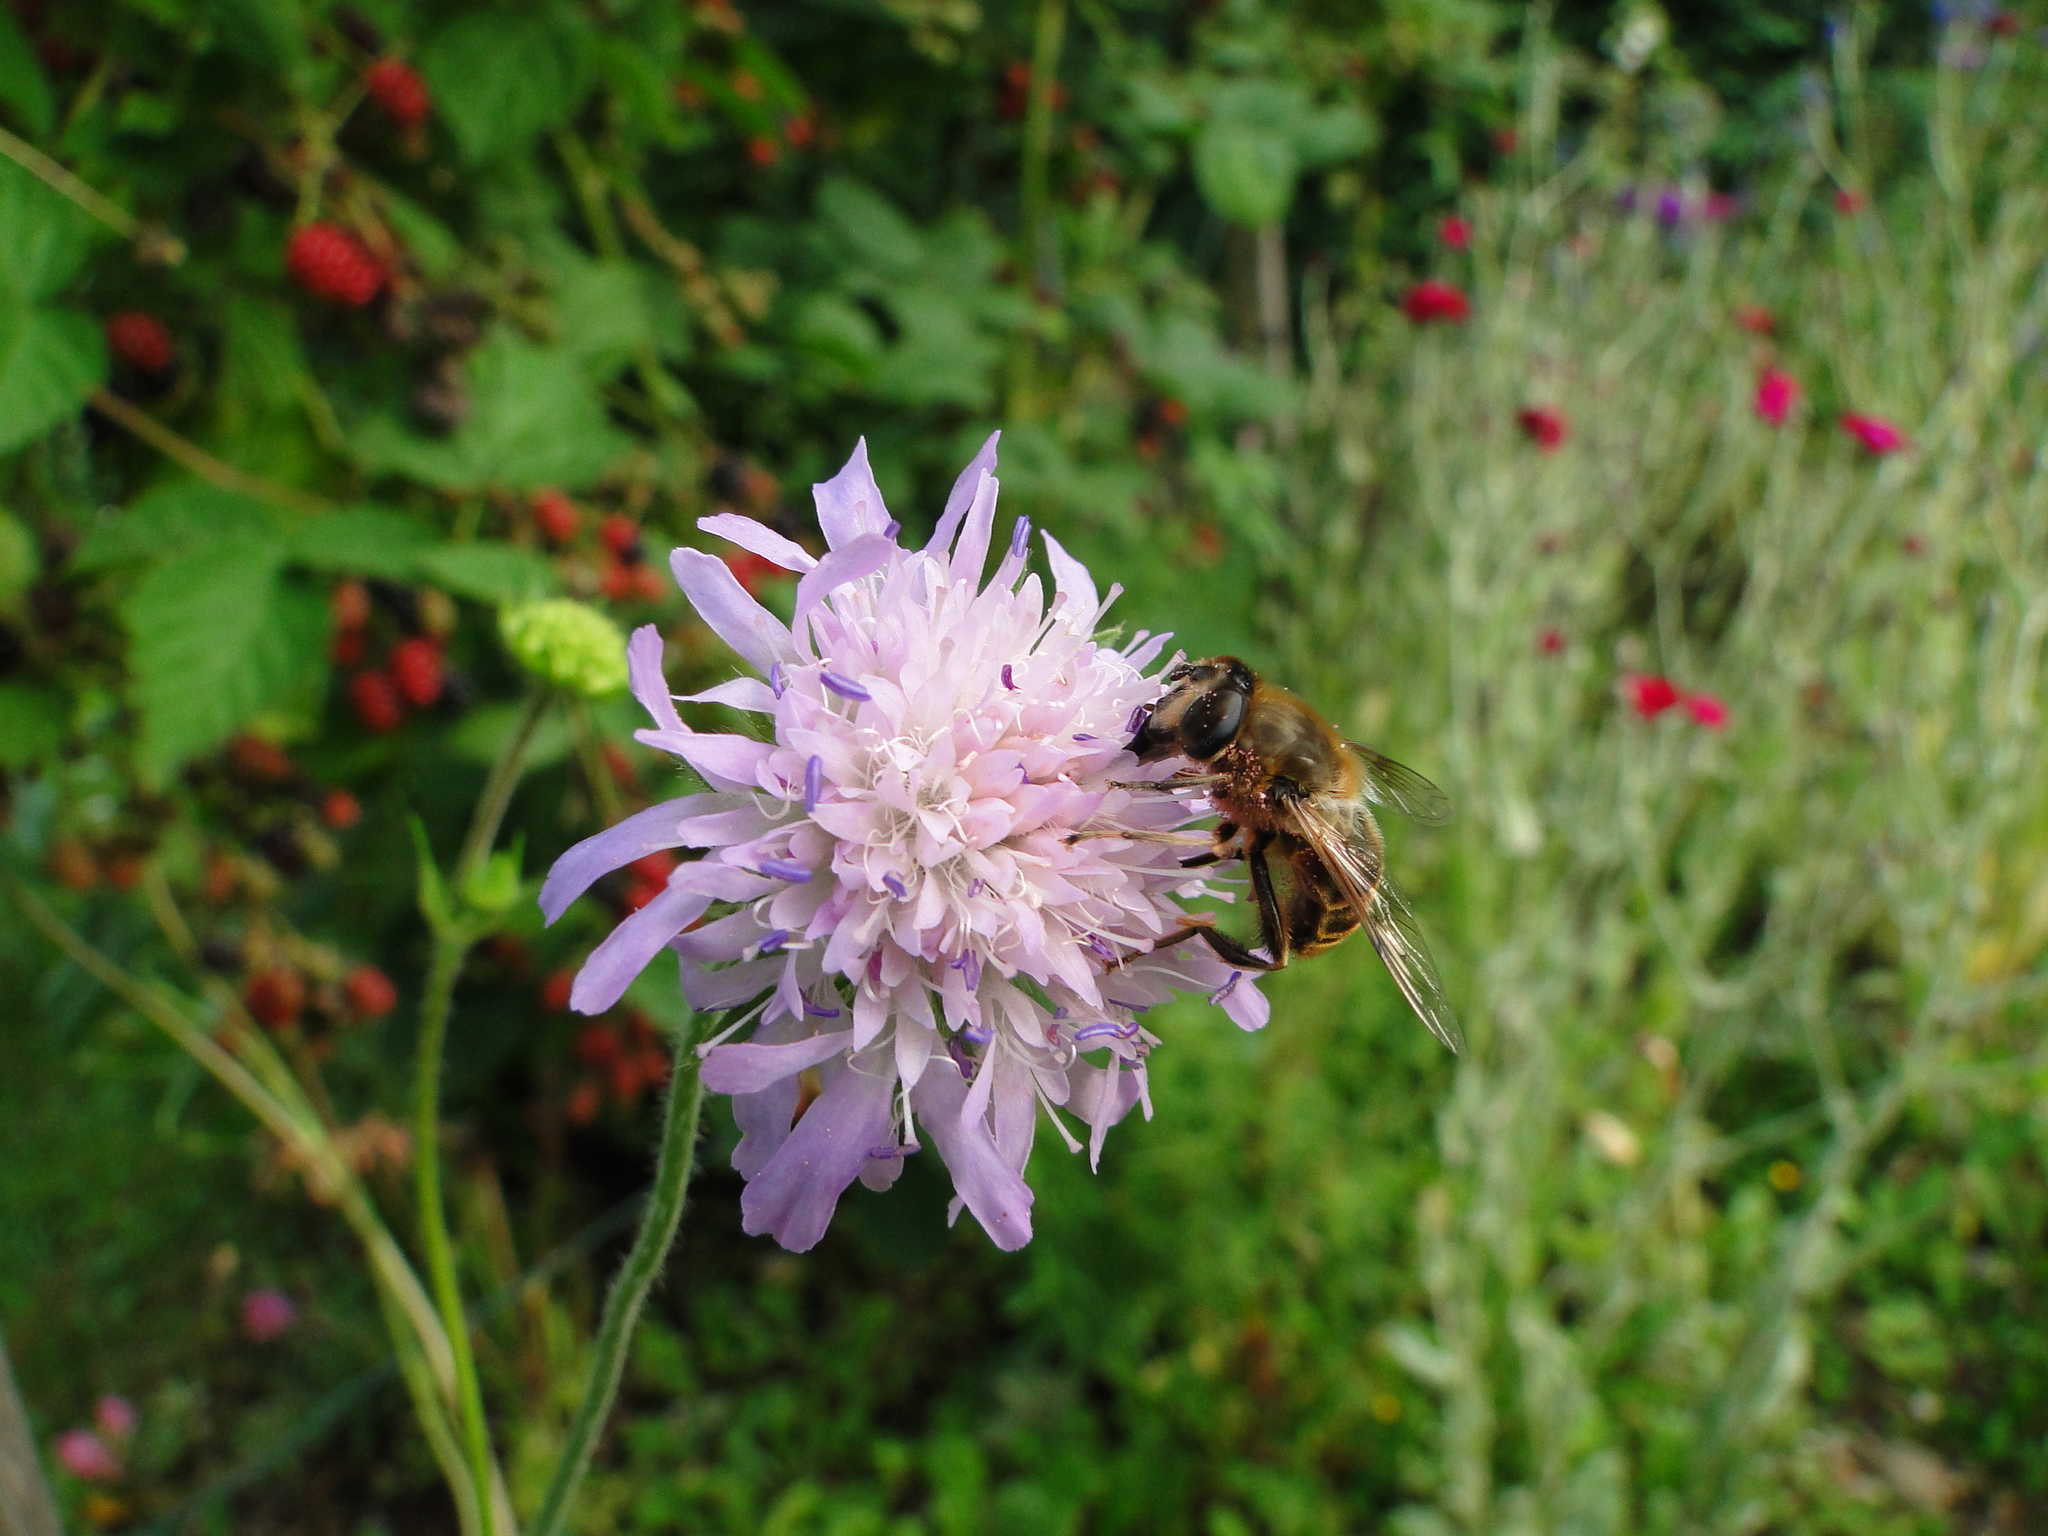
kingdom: Animalia
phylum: Arthropoda
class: Insecta
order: Diptera
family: Syrphidae
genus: Eristalis
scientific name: Eristalis tenax
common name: Drone fly
